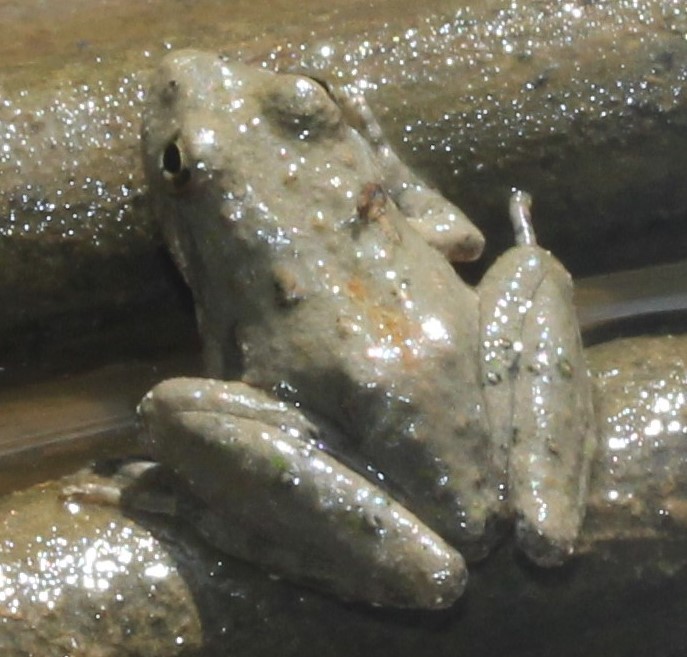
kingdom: Animalia
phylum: Chordata
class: Amphibia
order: Anura
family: Hylidae
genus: Acris
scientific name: Acris blanchardi
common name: Blanchard's cricket frog
